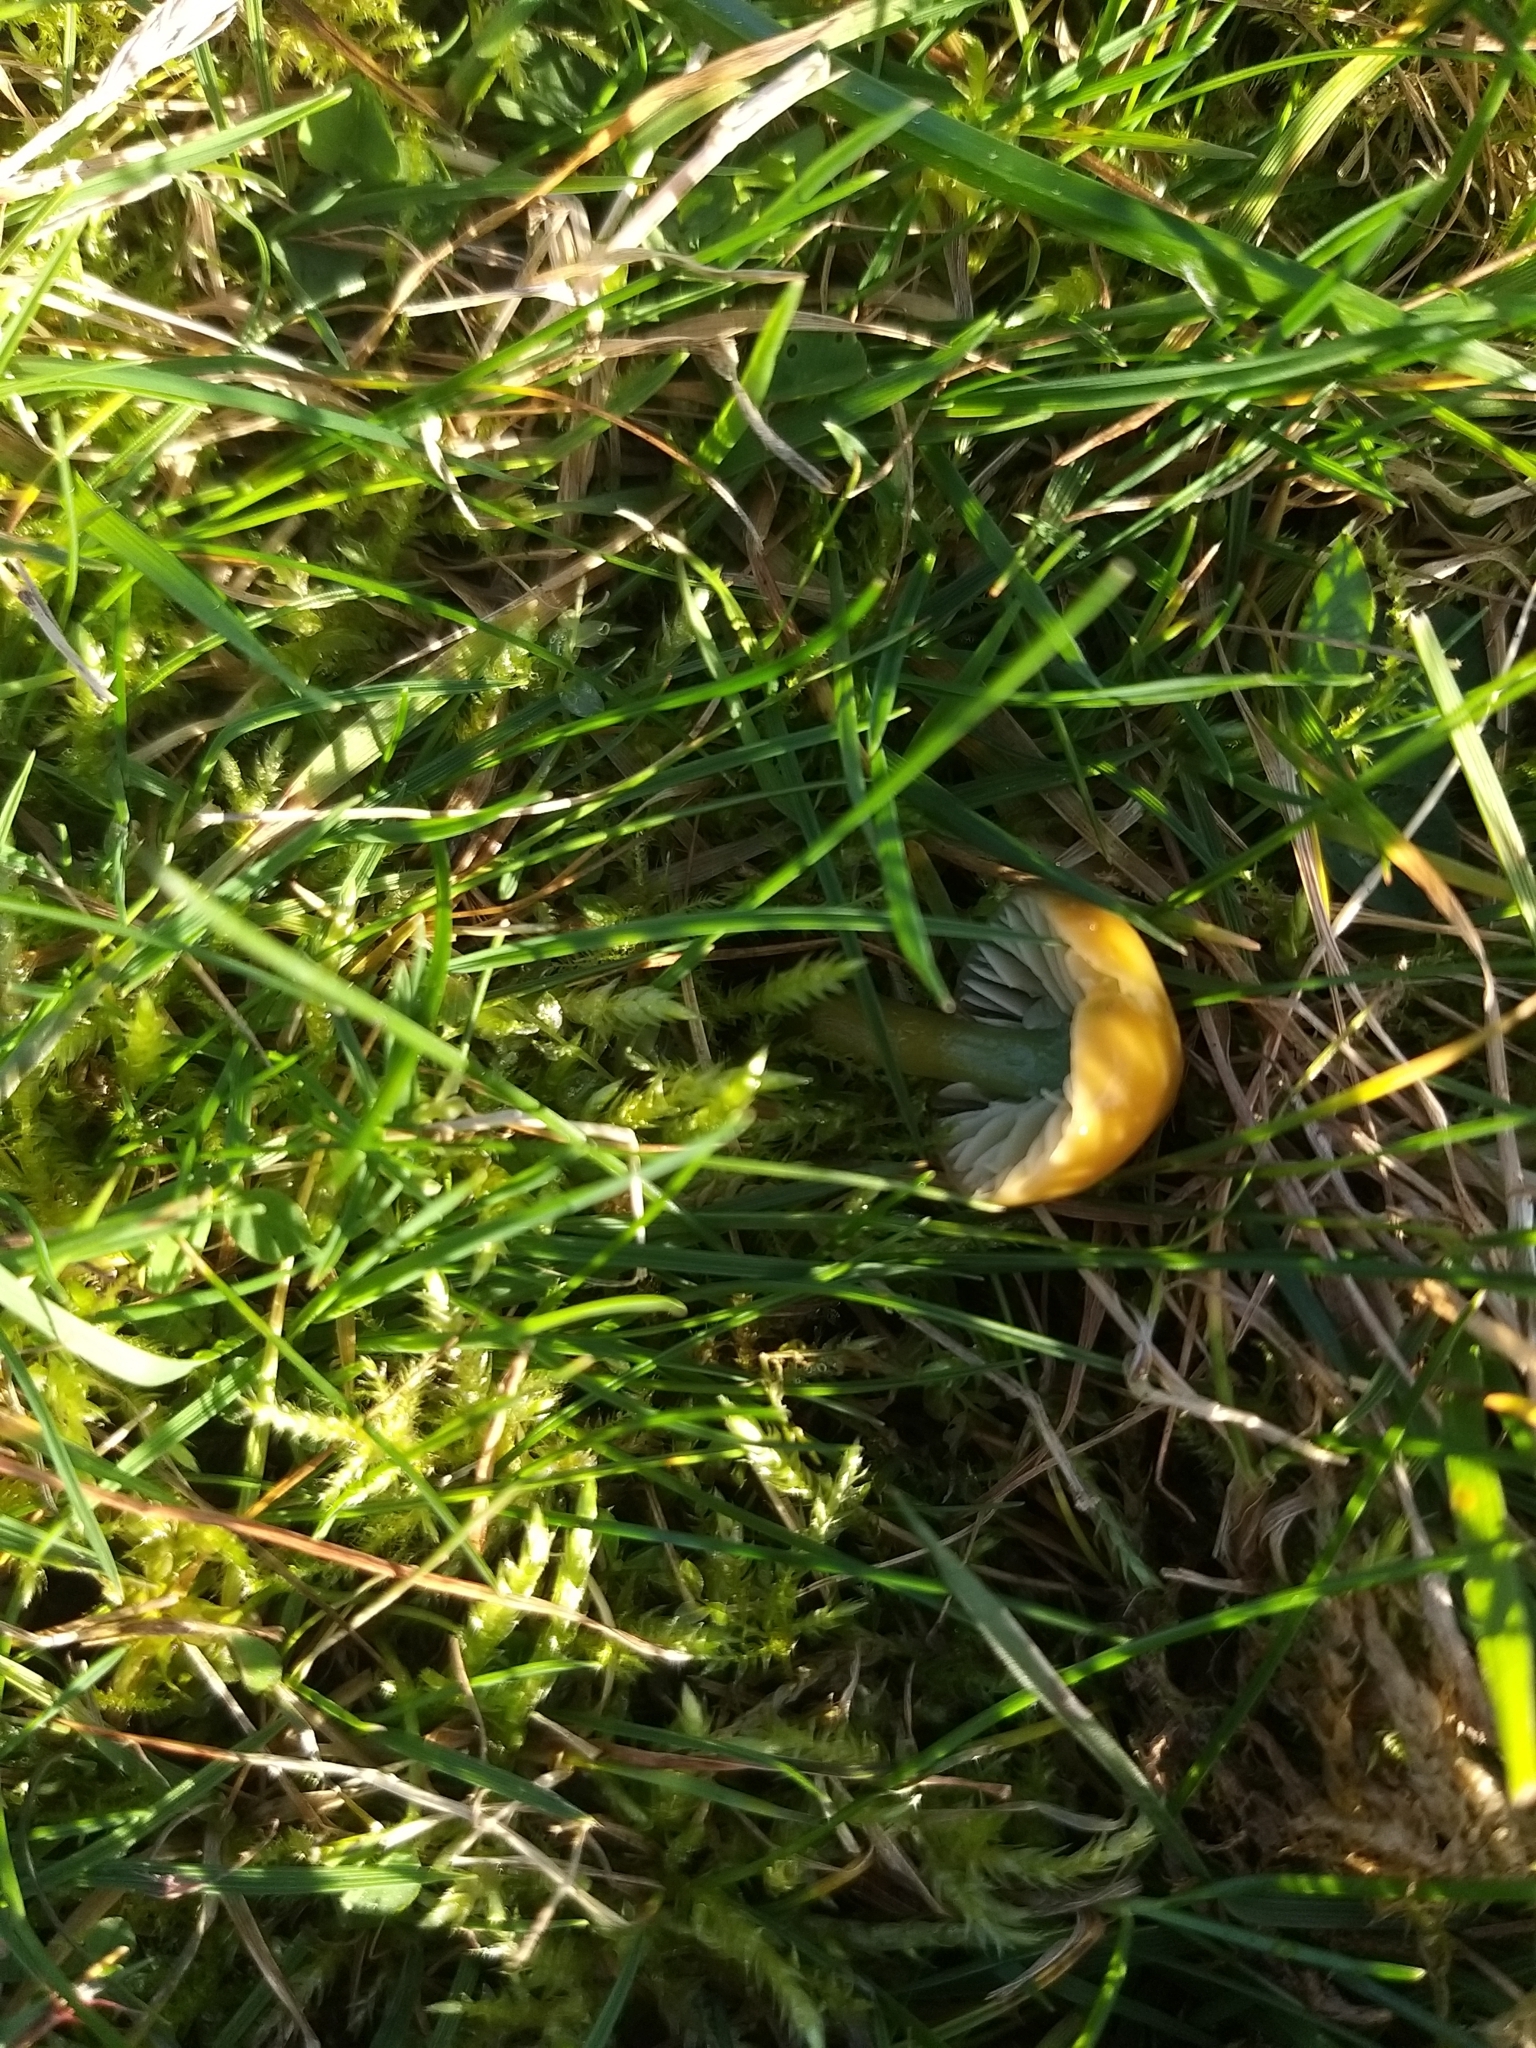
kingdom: Fungi
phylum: Basidiomycota
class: Agaricomycetes
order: Agaricales
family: Hygrophoraceae
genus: Gliophorus
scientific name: Gliophorus psittacinus
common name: Parrot wax-cap
